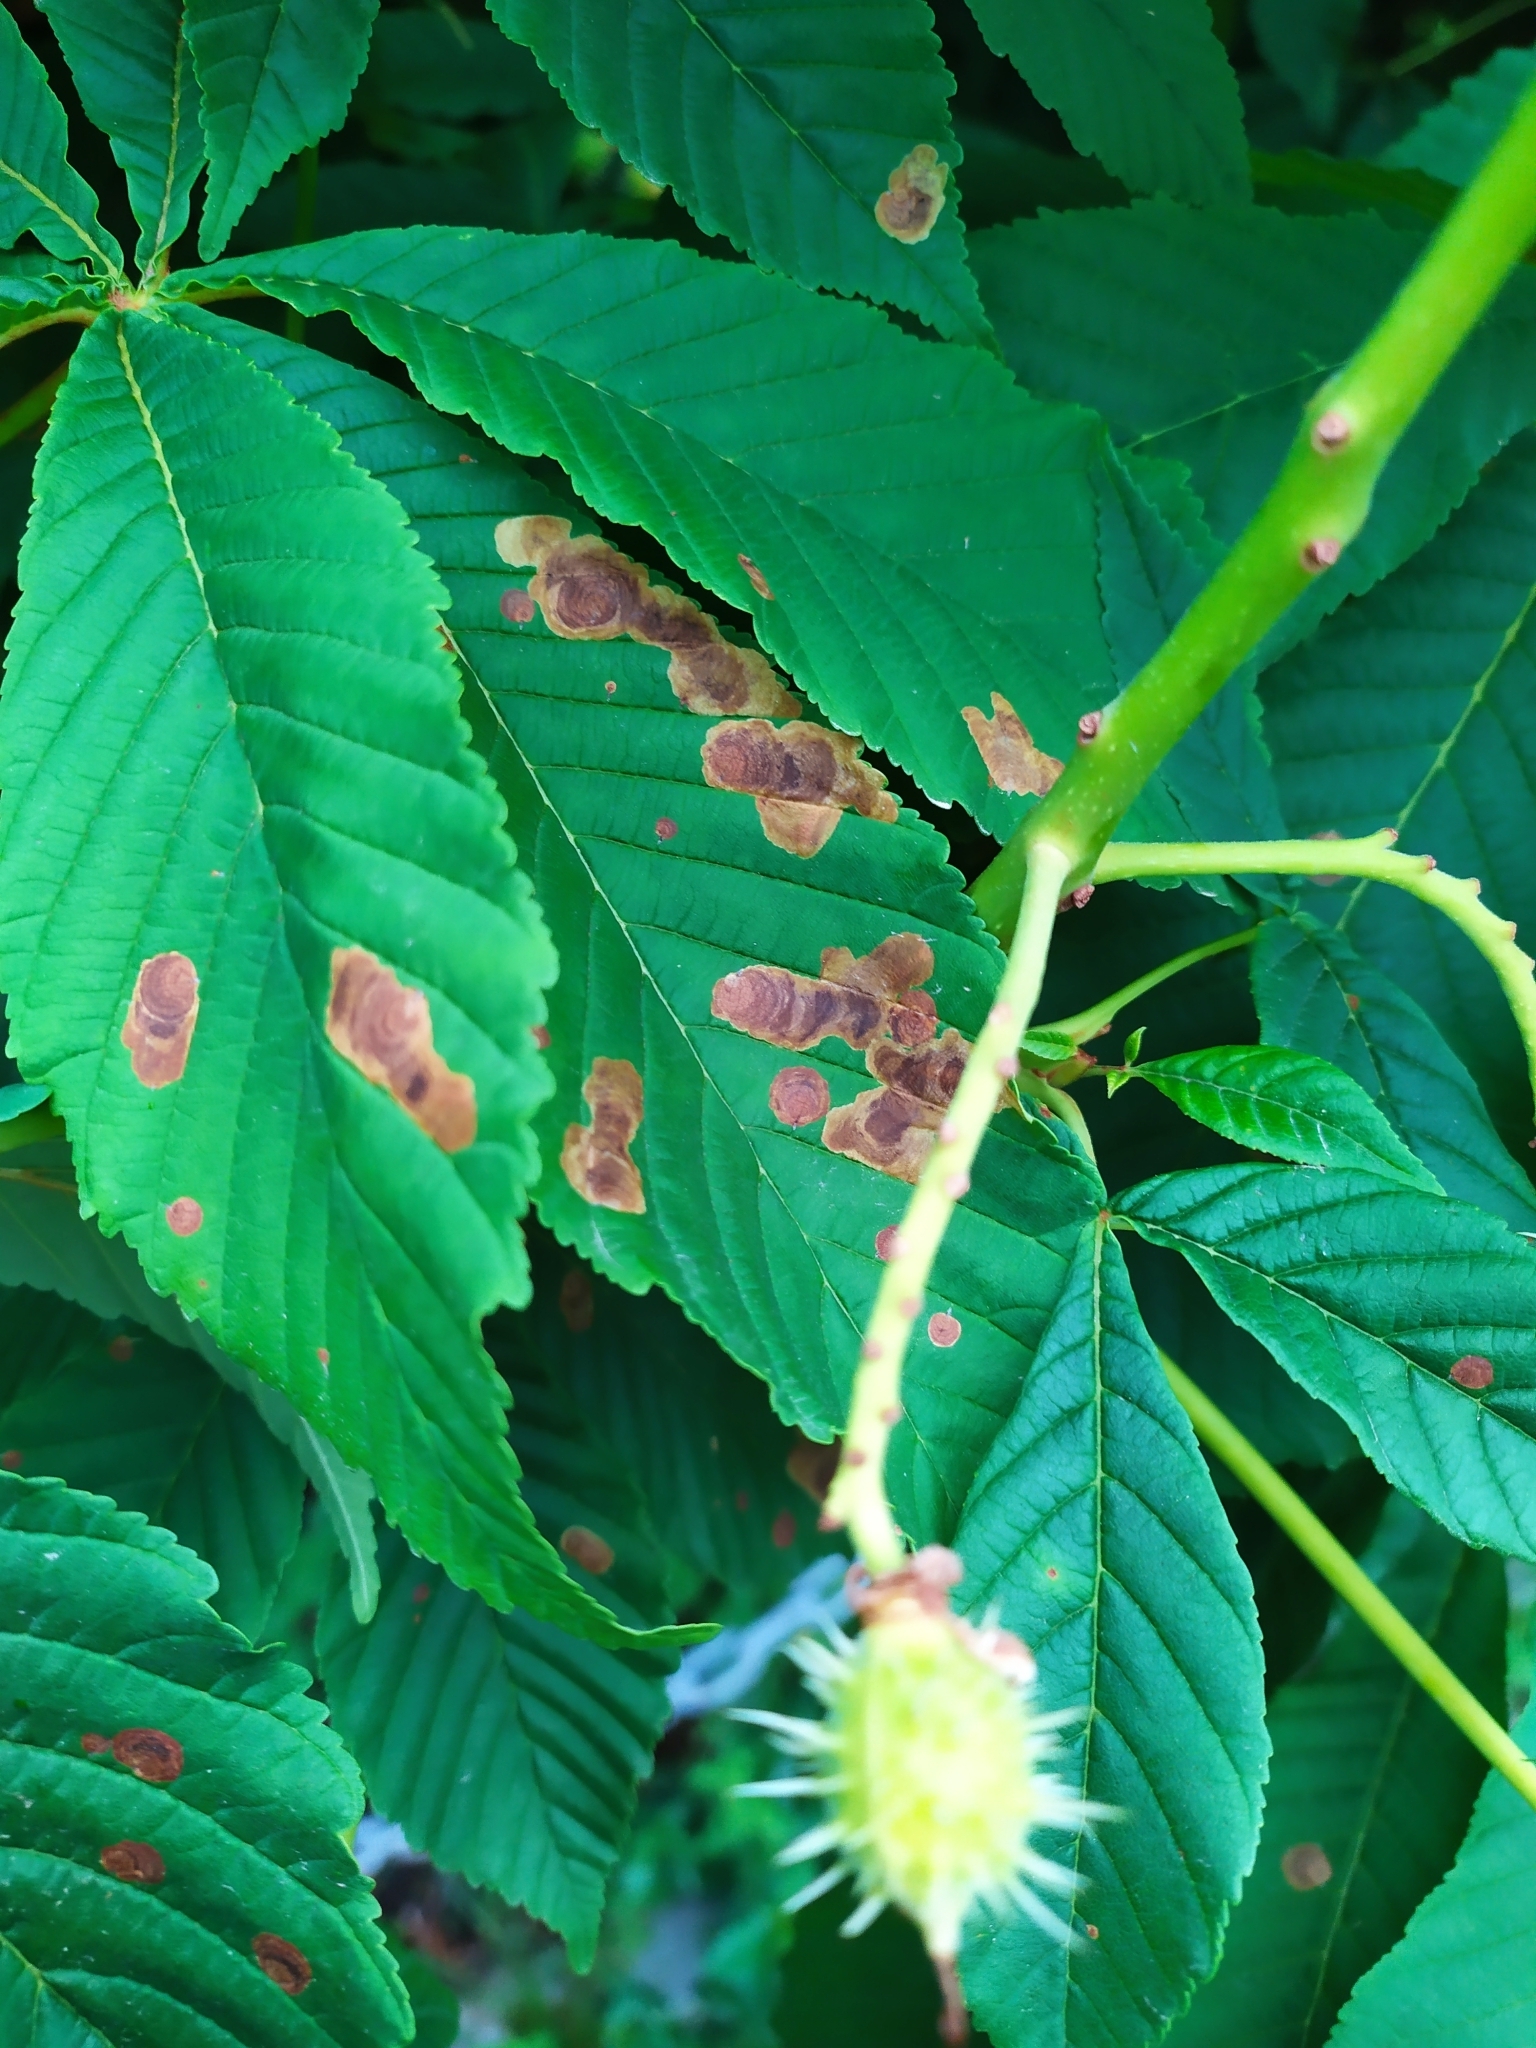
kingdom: Animalia
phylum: Arthropoda
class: Insecta
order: Lepidoptera
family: Gracillariidae
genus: Cameraria
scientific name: Cameraria ohridella
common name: Horse-chestnut leaf-miner
